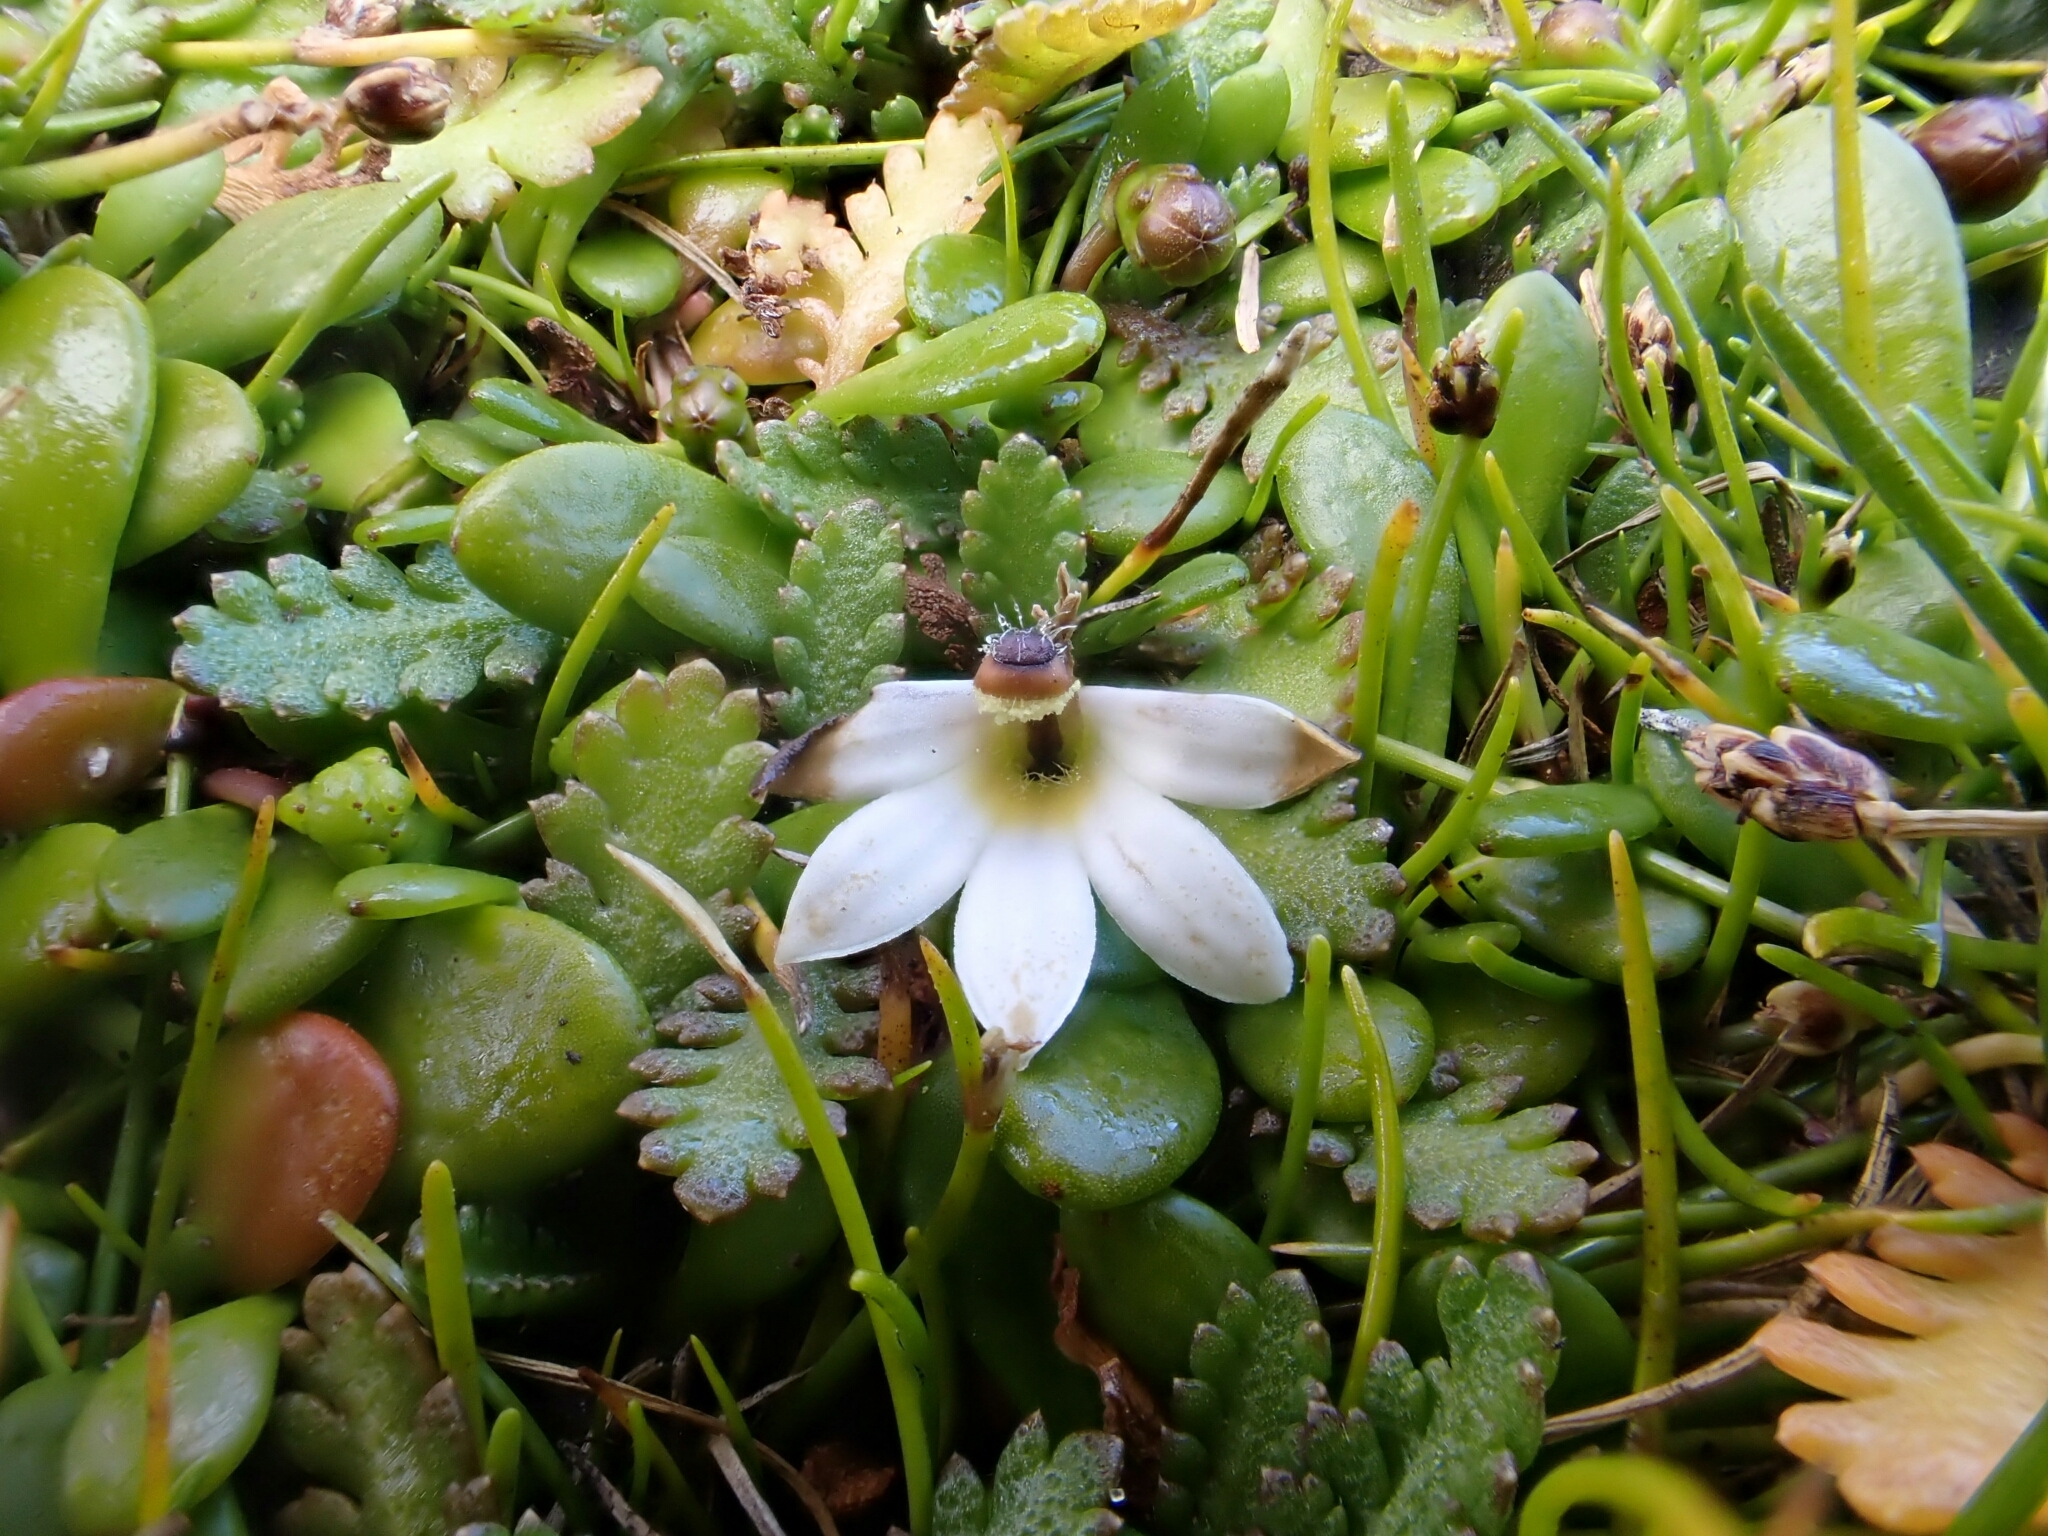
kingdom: Plantae
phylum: Tracheophyta
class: Magnoliopsida
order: Asterales
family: Goodeniaceae
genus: Goodenia
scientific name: Goodenia radicans
